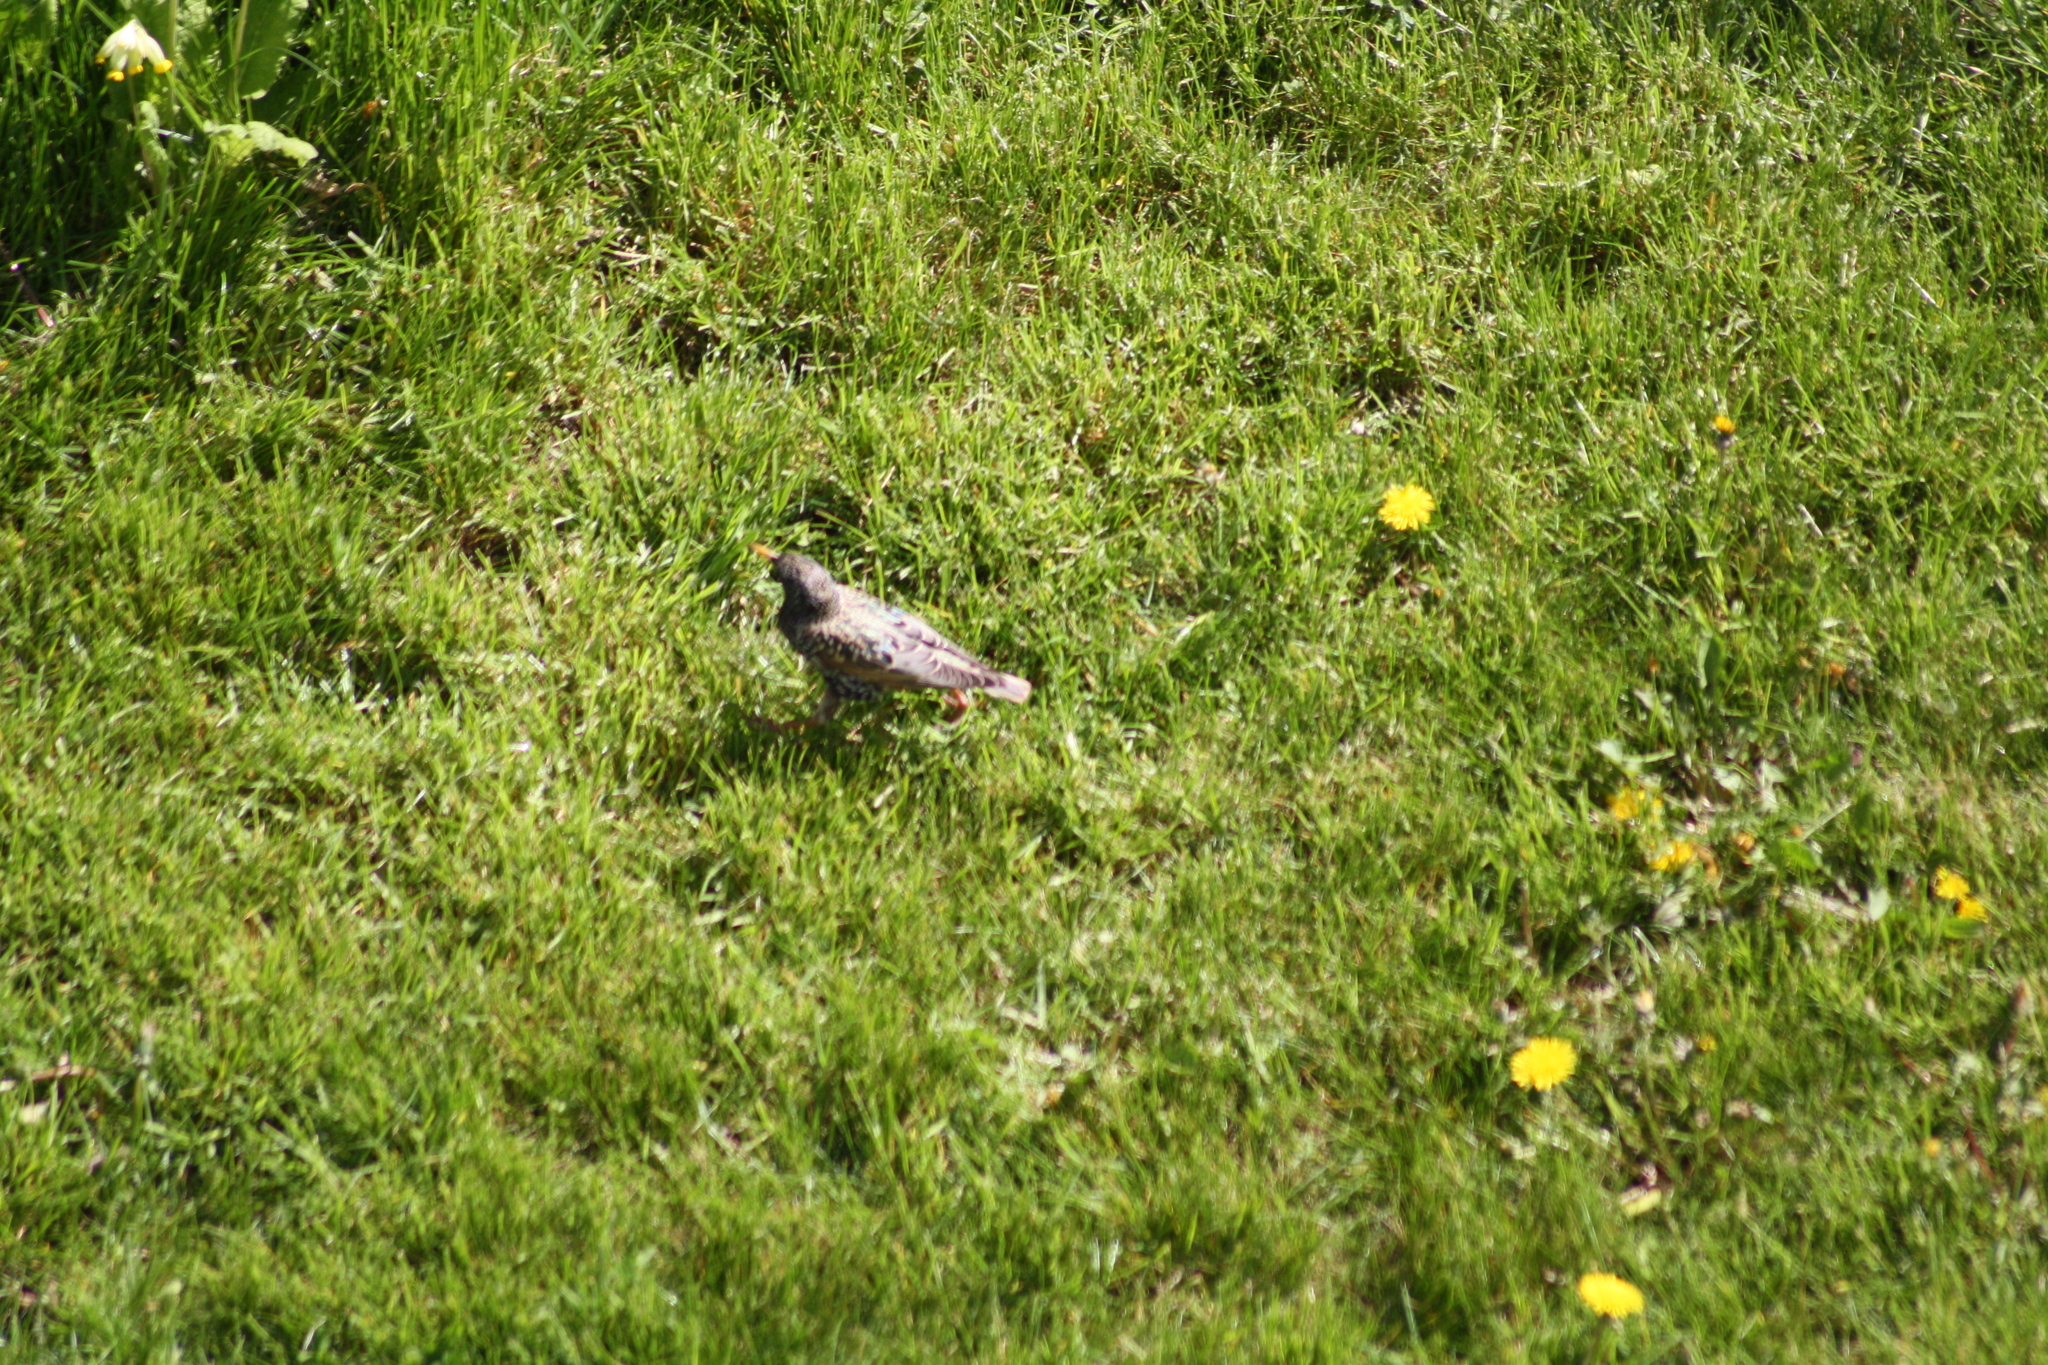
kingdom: Animalia
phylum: Chordata
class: Aves
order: Passeriformes
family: Sturnidae
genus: Sturnus
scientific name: Sturnus vulgaris
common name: Common starling
